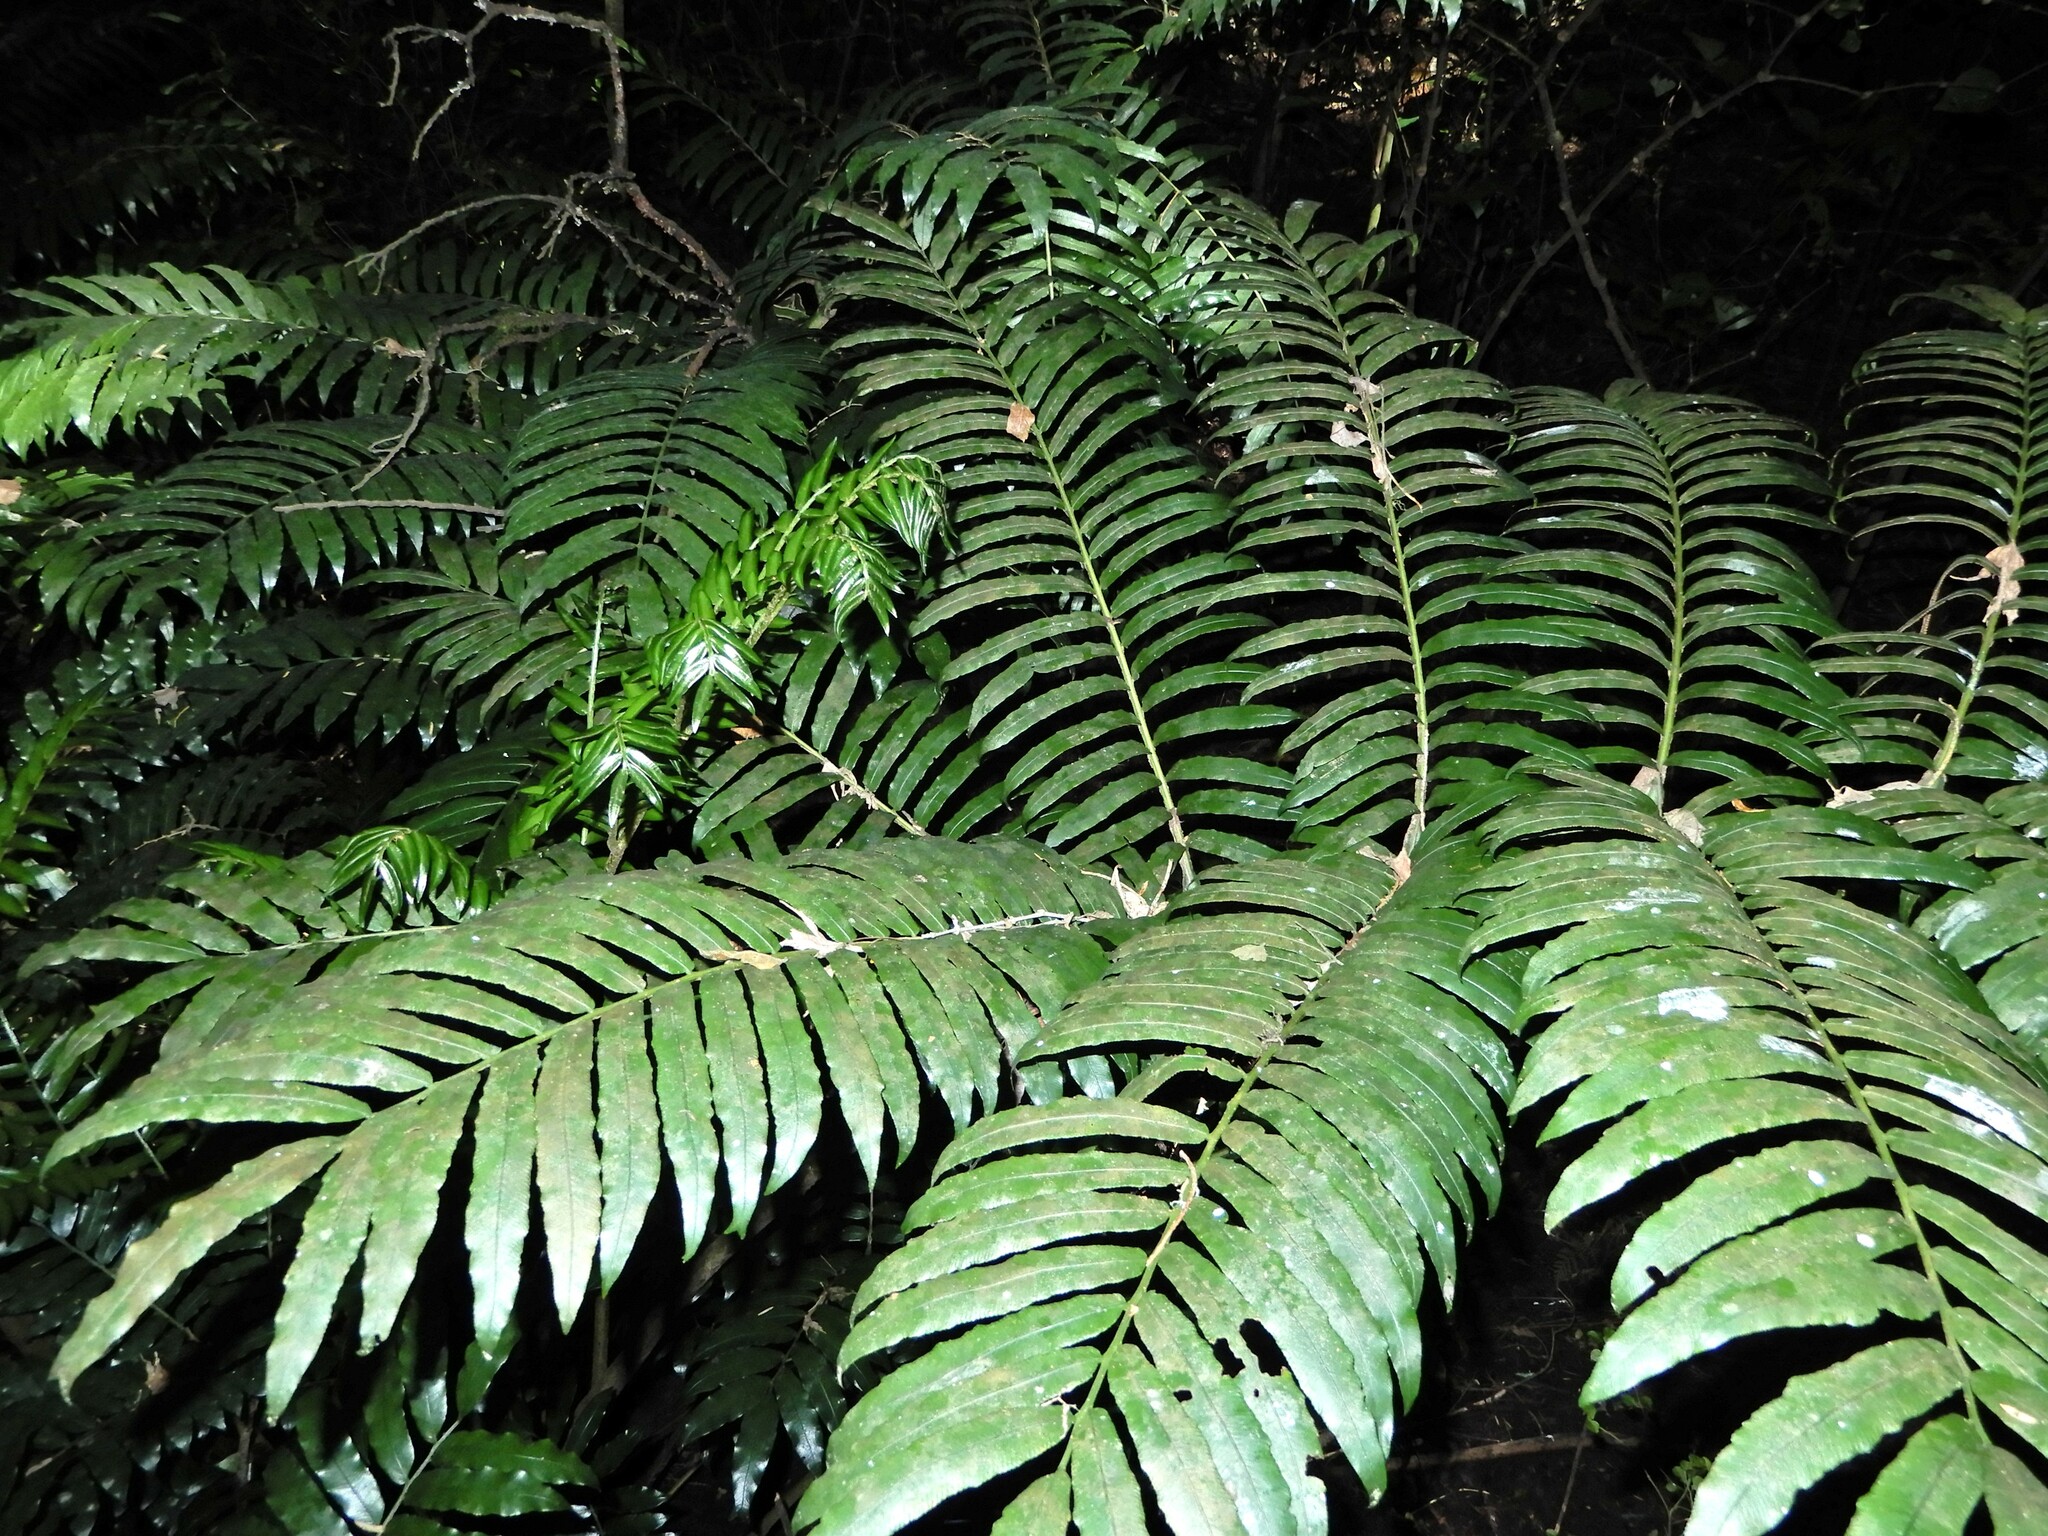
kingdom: Plantae
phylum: Tracheophyta
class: Polypodiopsida
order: Marattiales
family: Marattiaceae
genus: Ptisana
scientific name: Ptisana salicina
